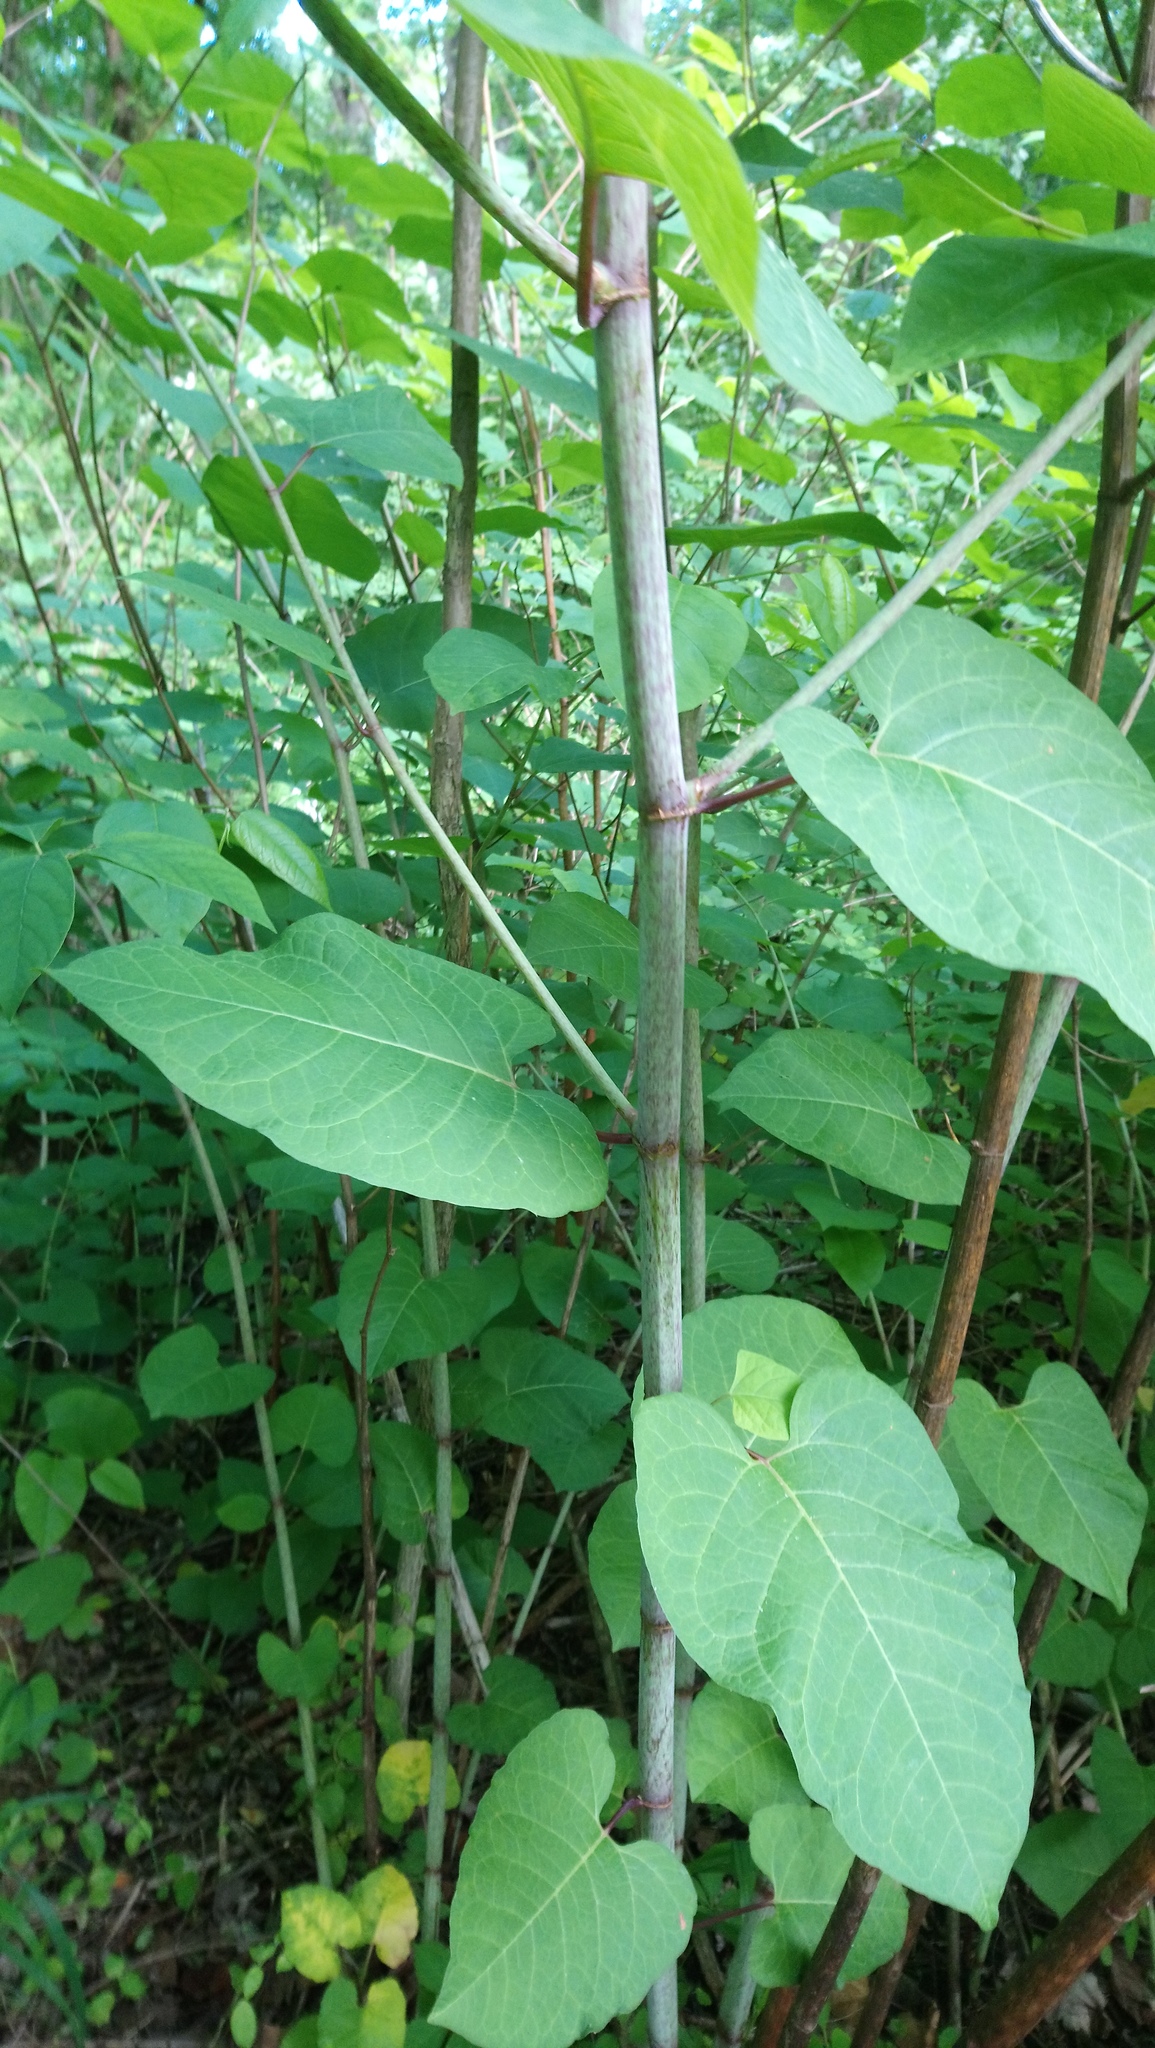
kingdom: Plantae
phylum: Tracheophyta
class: Magnoliopsida
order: Caryophyllales
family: Polygonaceae
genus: Reynoutria
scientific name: Reynoutria japonica
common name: Japanese knotweed
